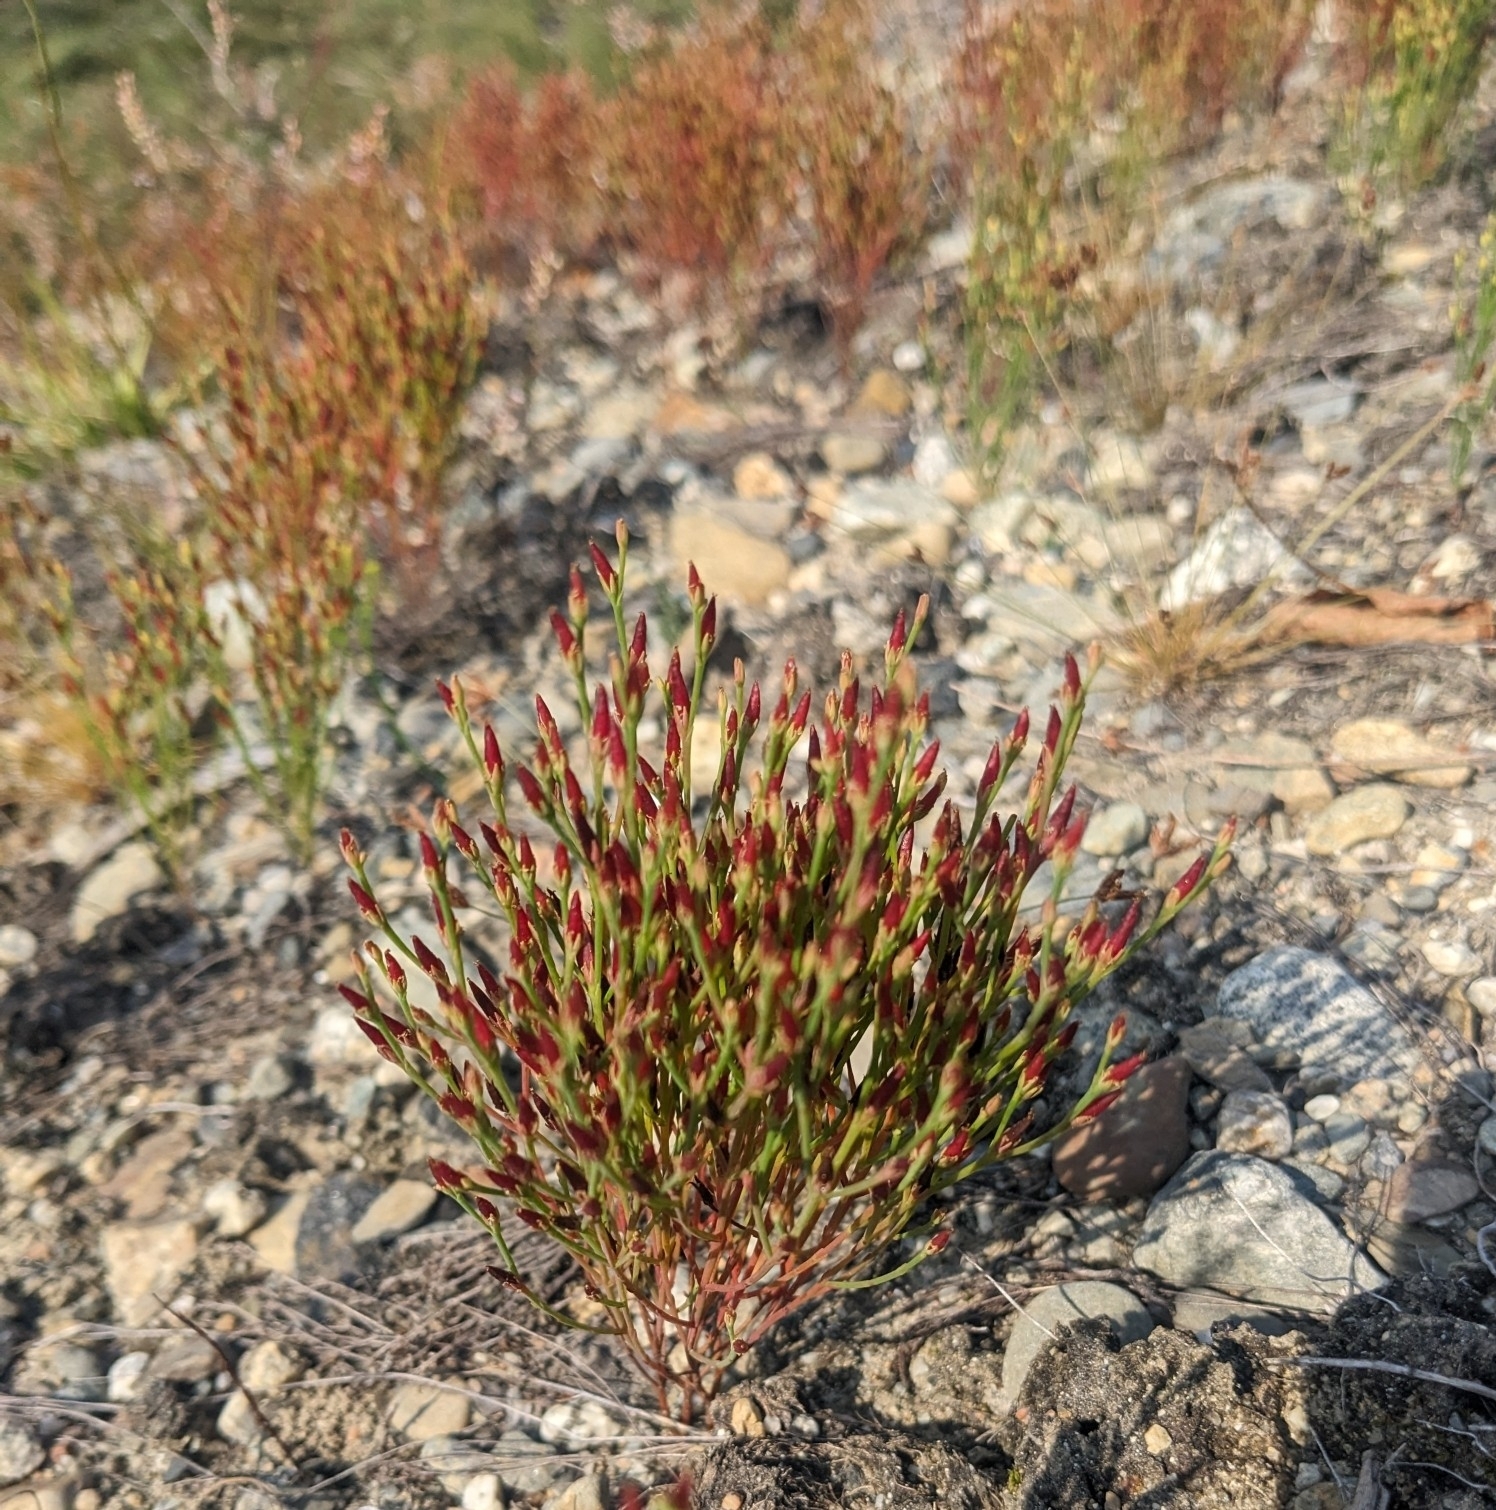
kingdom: Plantae
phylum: Tracheophyta
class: Magnoliopsida
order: Malpighiales
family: Hypericaceae
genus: Hypericum
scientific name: Hypericum gentianoides
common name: Gentian-leaved st. john's-wort
